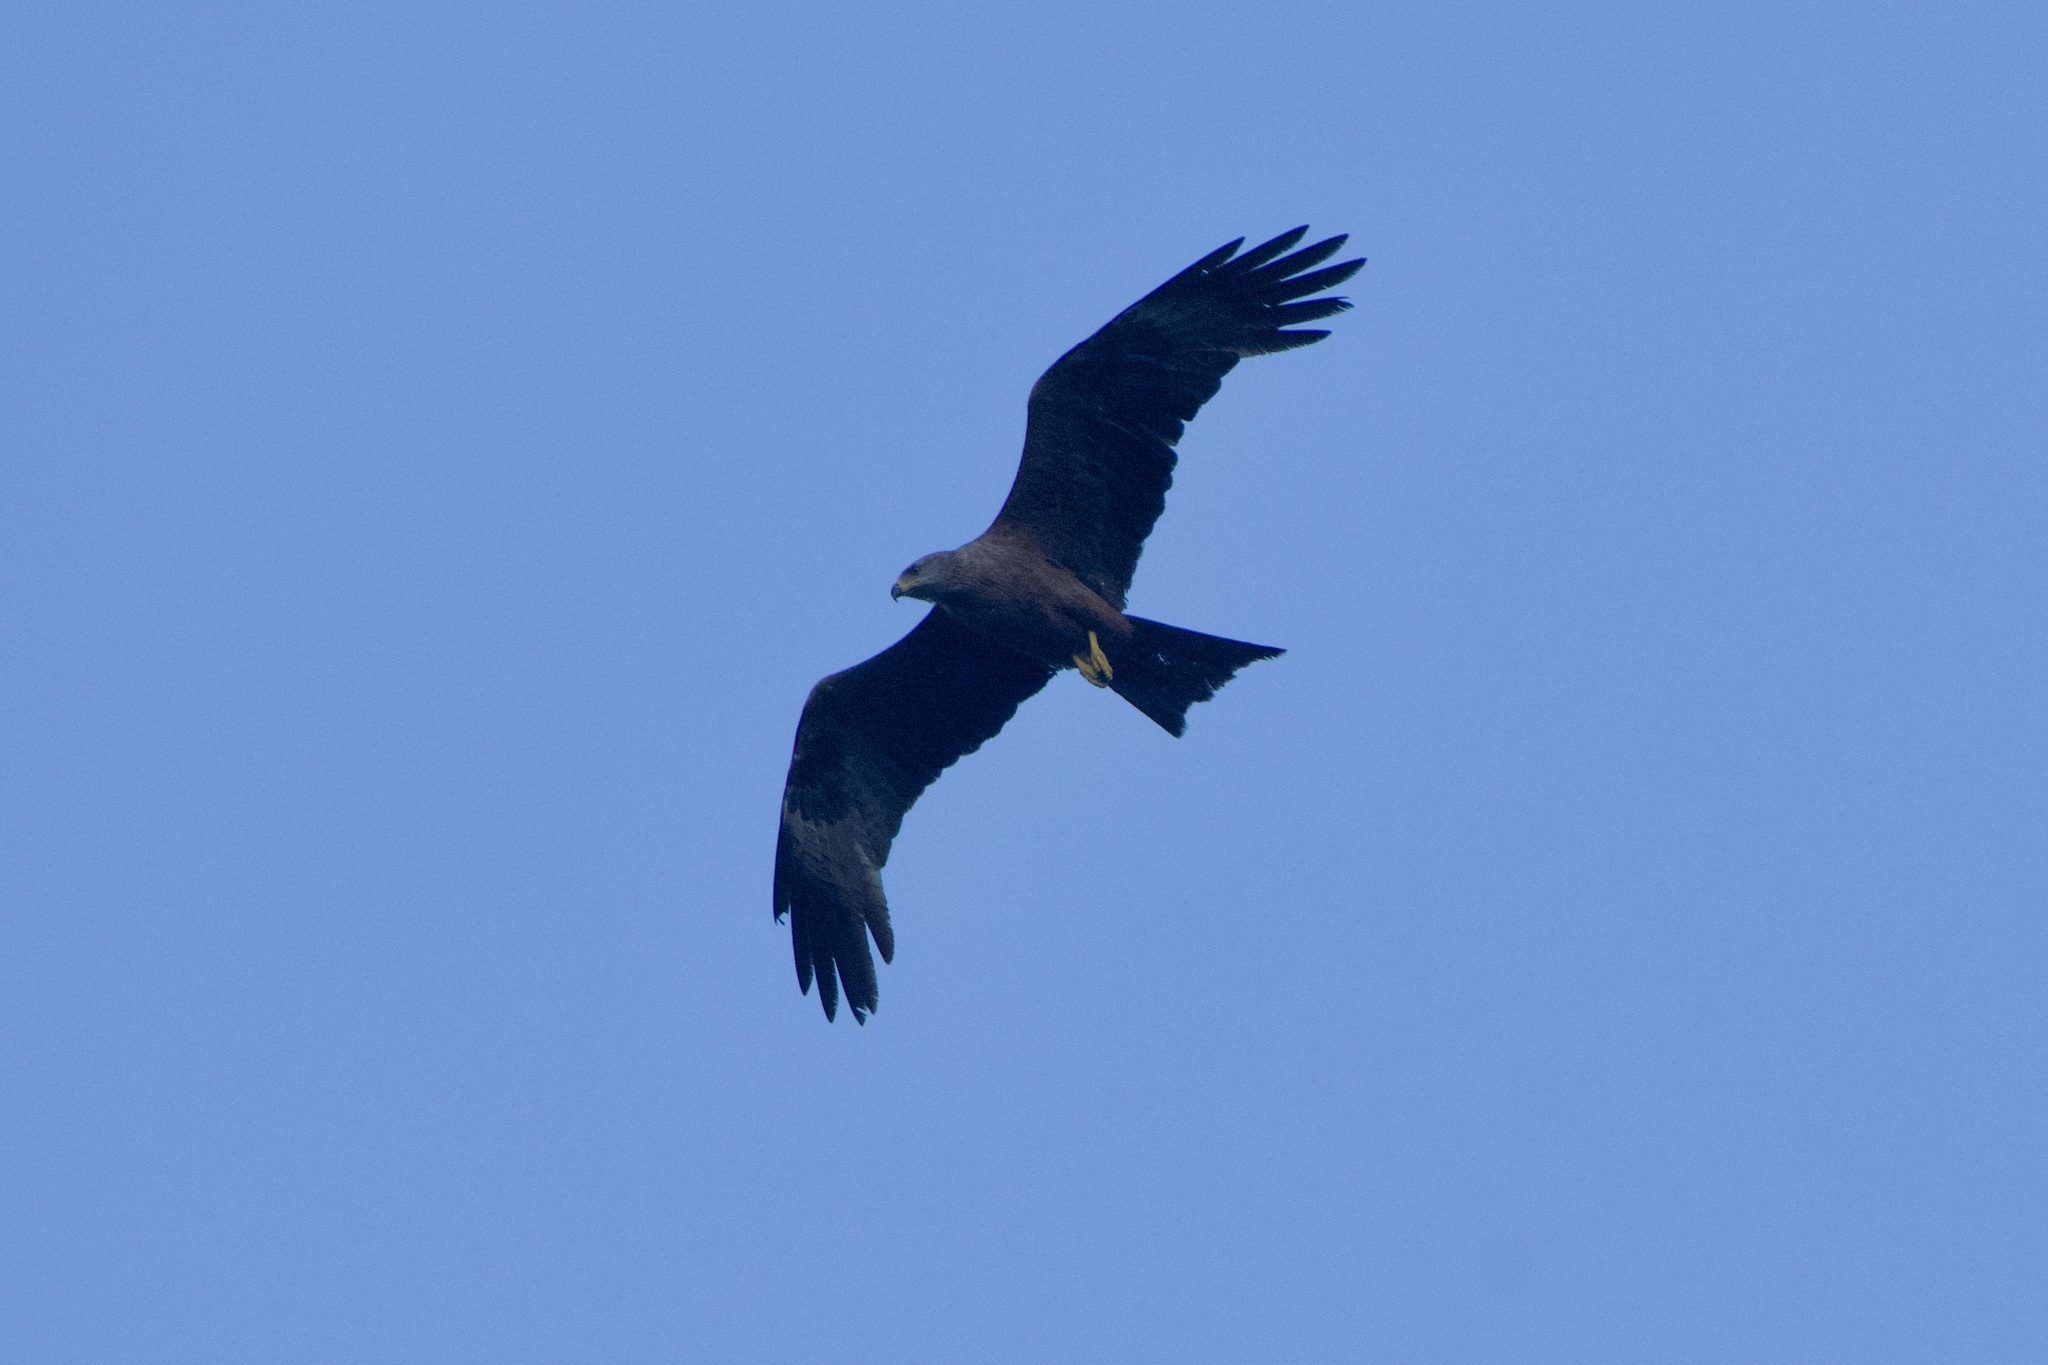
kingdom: Animalia
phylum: Chordata
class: Aves
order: Accipitriformes
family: Accipitridae
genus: Milvus
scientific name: Milvus migrans
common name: Black kite
